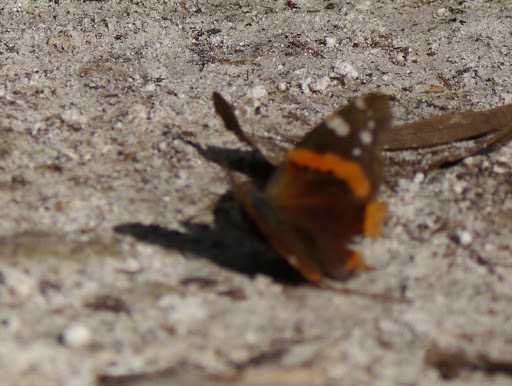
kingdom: Animalia
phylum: Arthropoda
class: Insecta
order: Lepidoptera
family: Nymphalidae
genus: Vanessa
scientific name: Vanessa atalanta
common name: Red admiral
